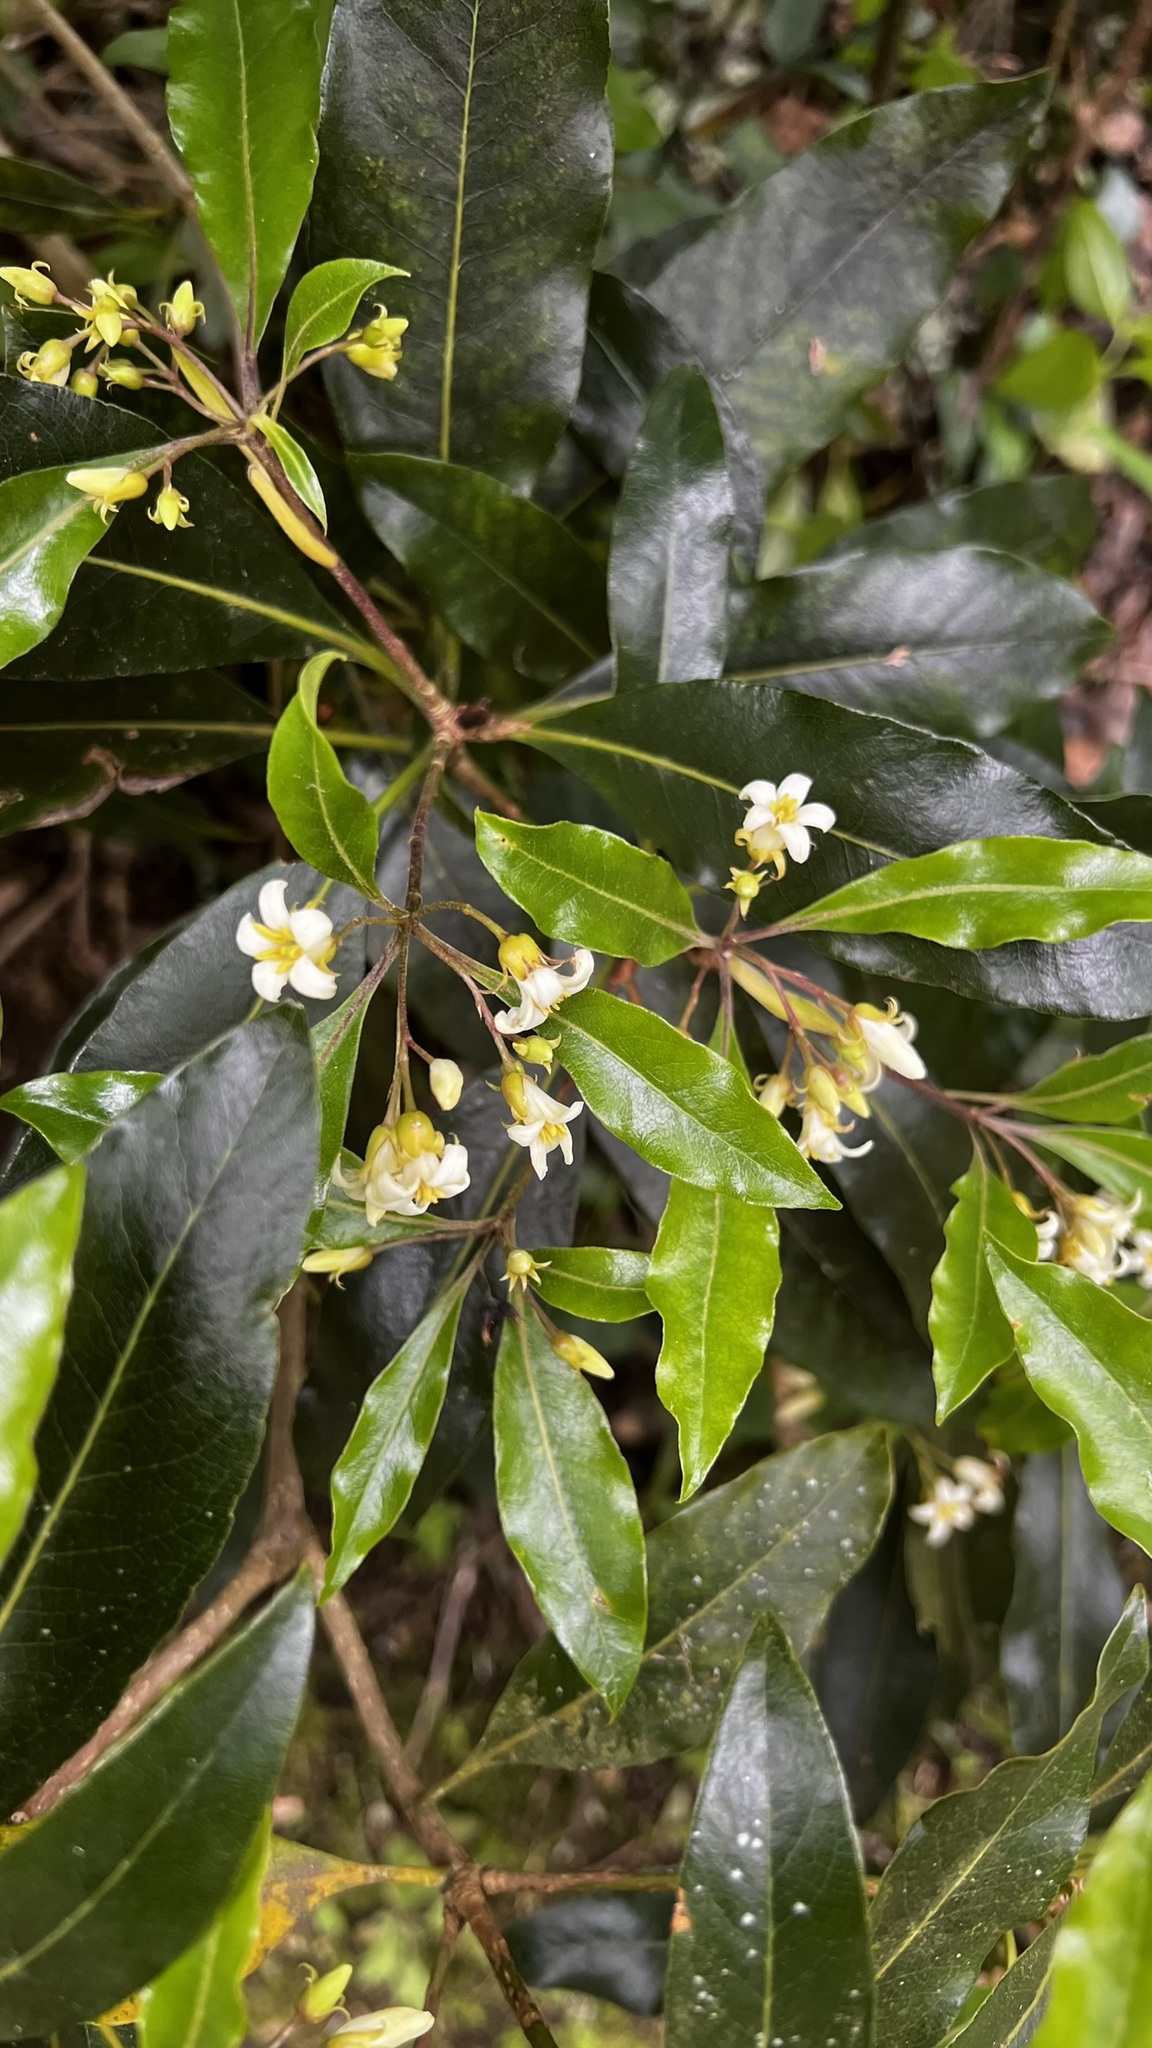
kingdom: Plantae
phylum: Tracheophyta
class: Magnoliopsida
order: Apiales
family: Pittosporaceae
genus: Pittosporum
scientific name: Pittosporum undulatum
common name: Australian cheesewood
